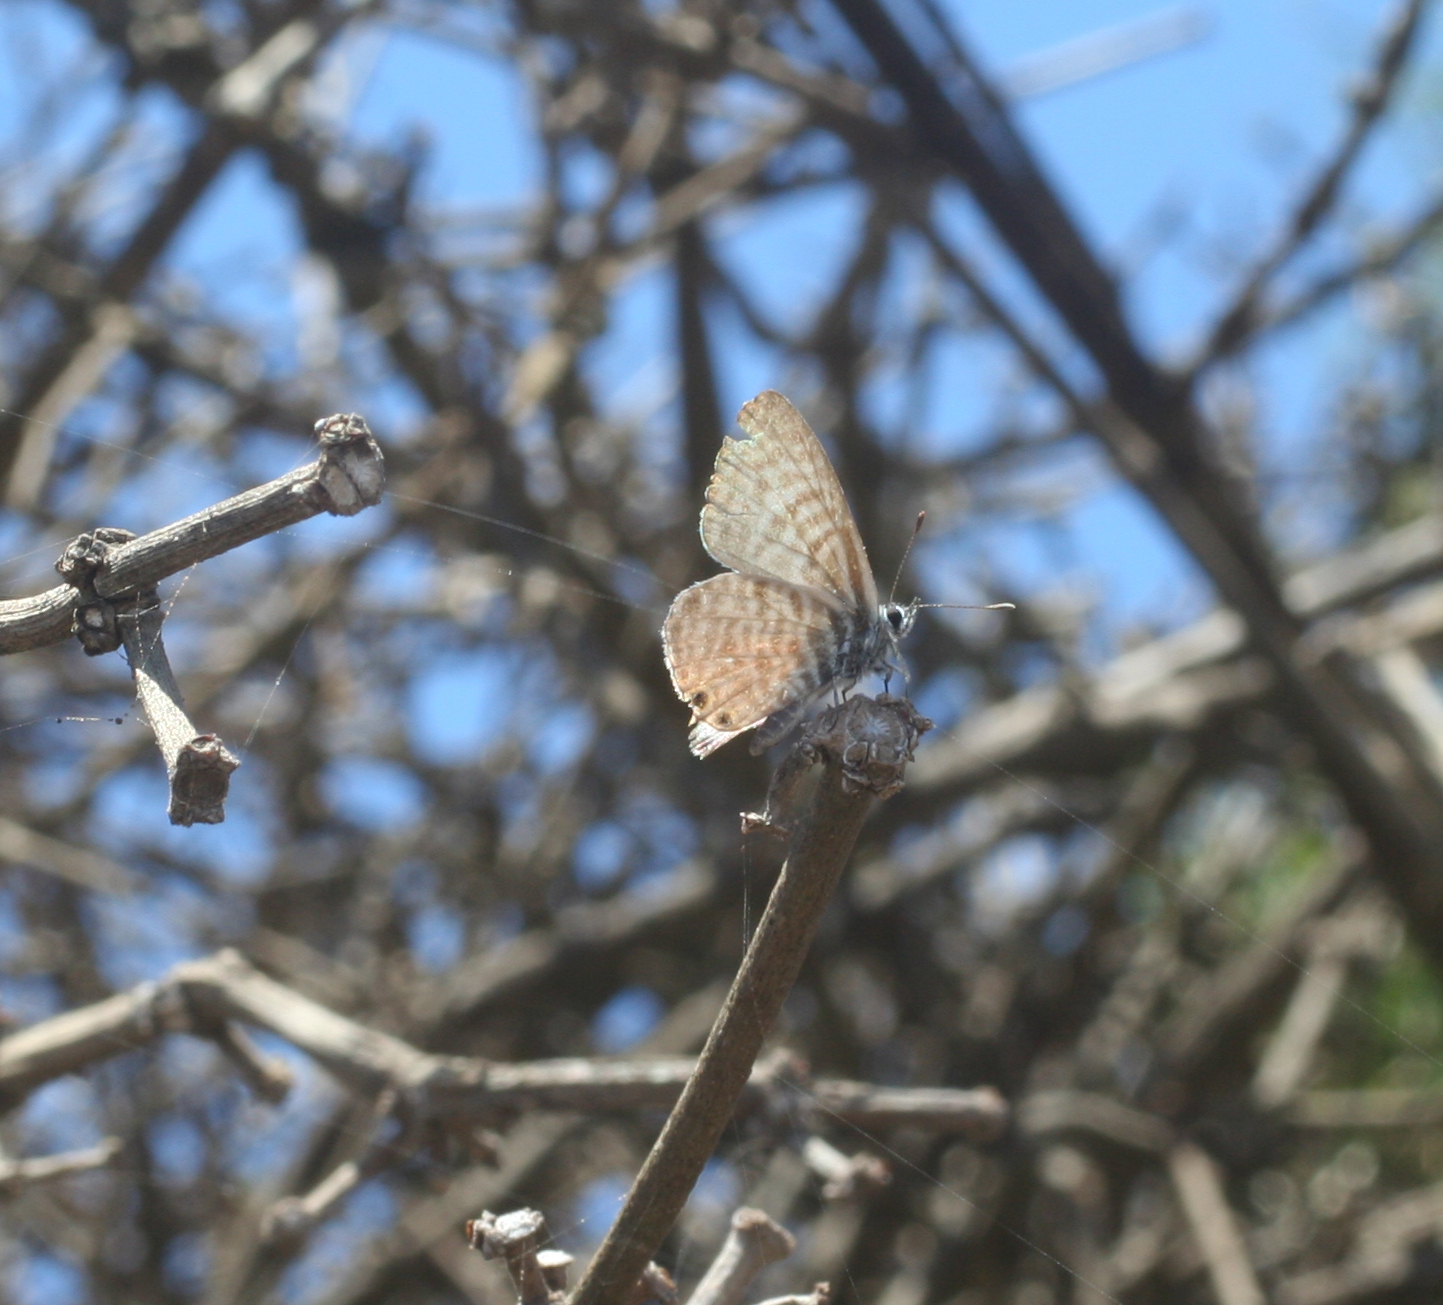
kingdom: Animalia
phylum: Arthropoda
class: Insecta
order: Lepidoptera
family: Lycaenidae
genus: Leptotes
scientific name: Leptotes pirithous
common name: Lang's short-tailed blue
